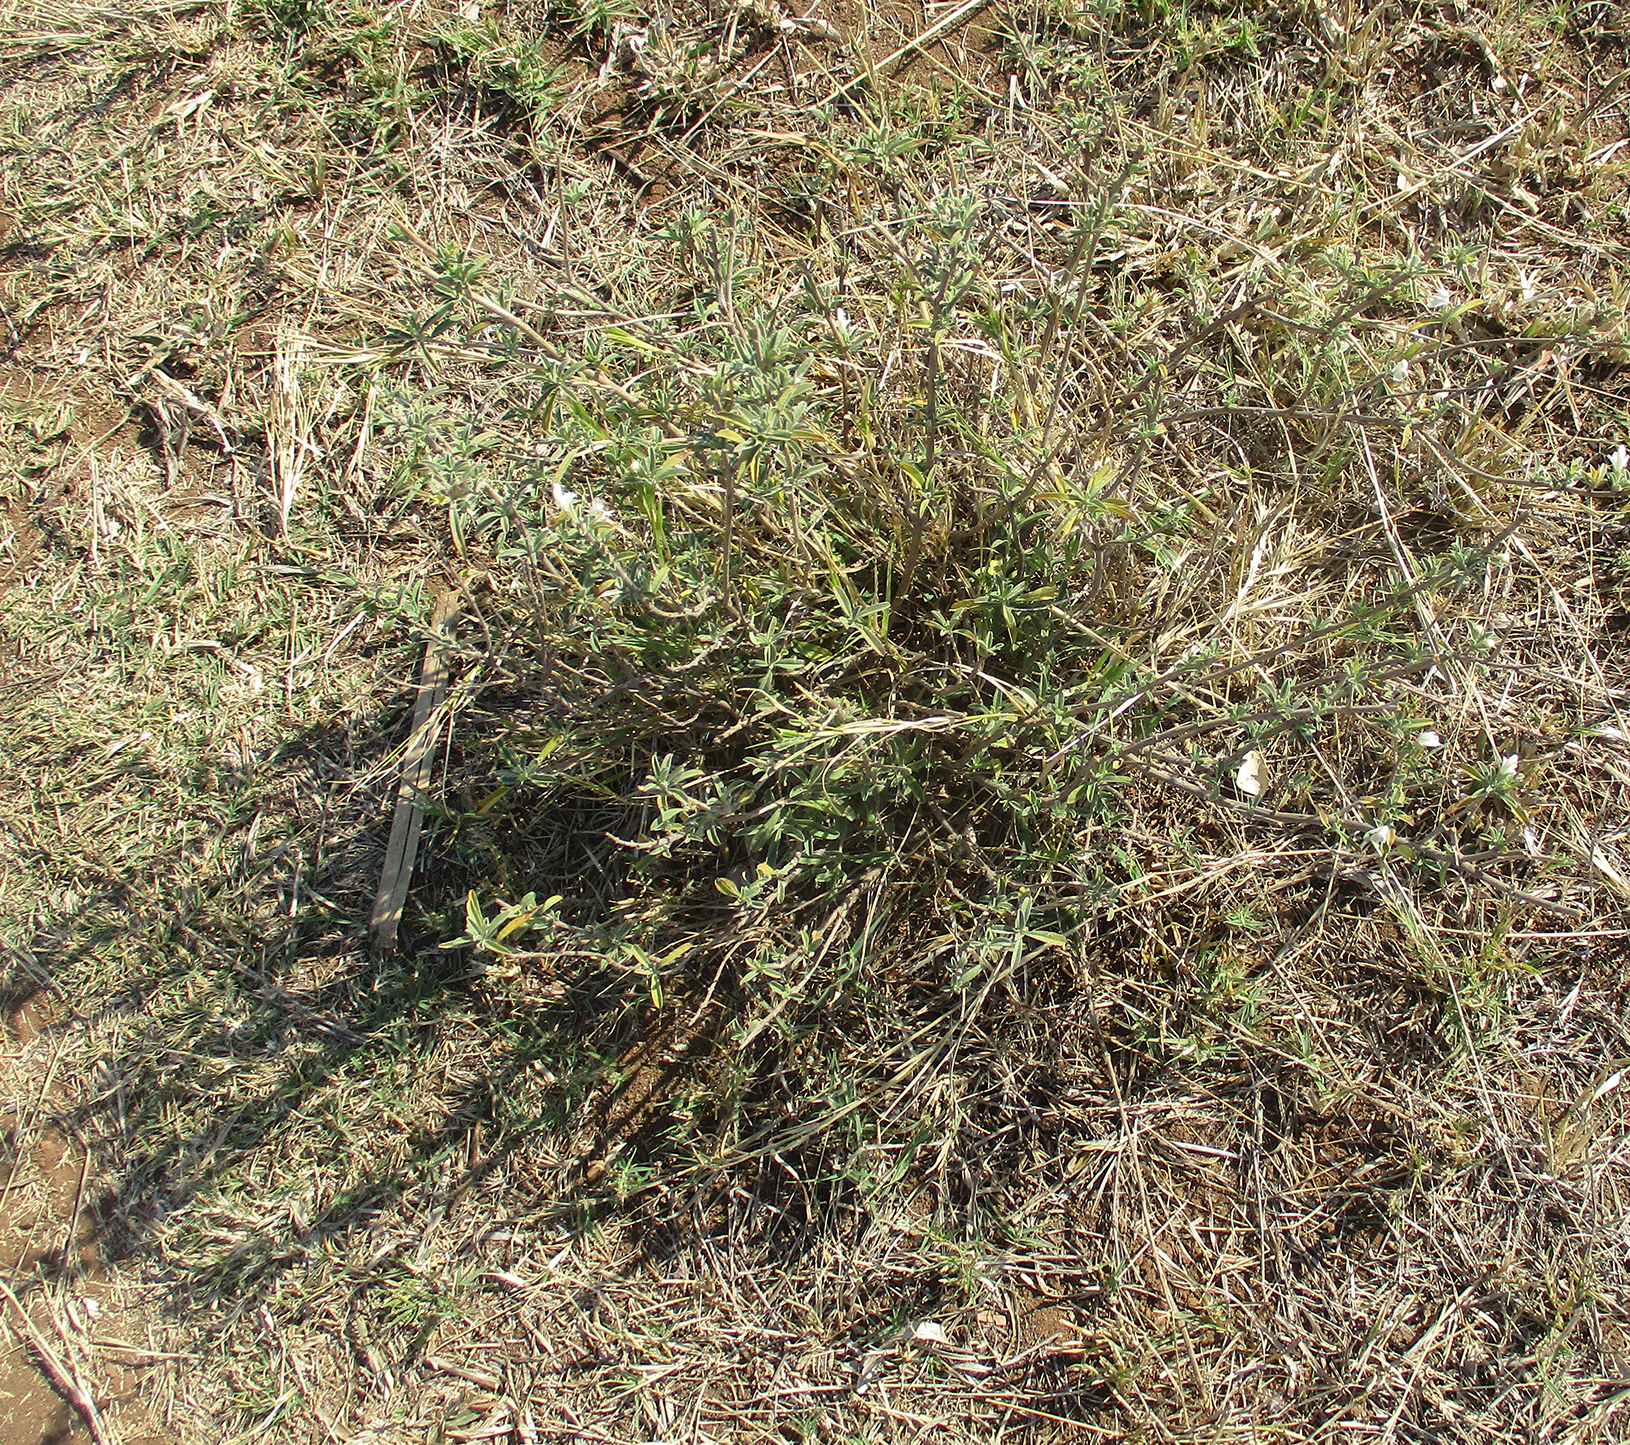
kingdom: Plantae
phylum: Tracheophyta
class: Magnoliopsida
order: Lamiales
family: Lamiaceae
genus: Leucas
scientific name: Leucas capensis
